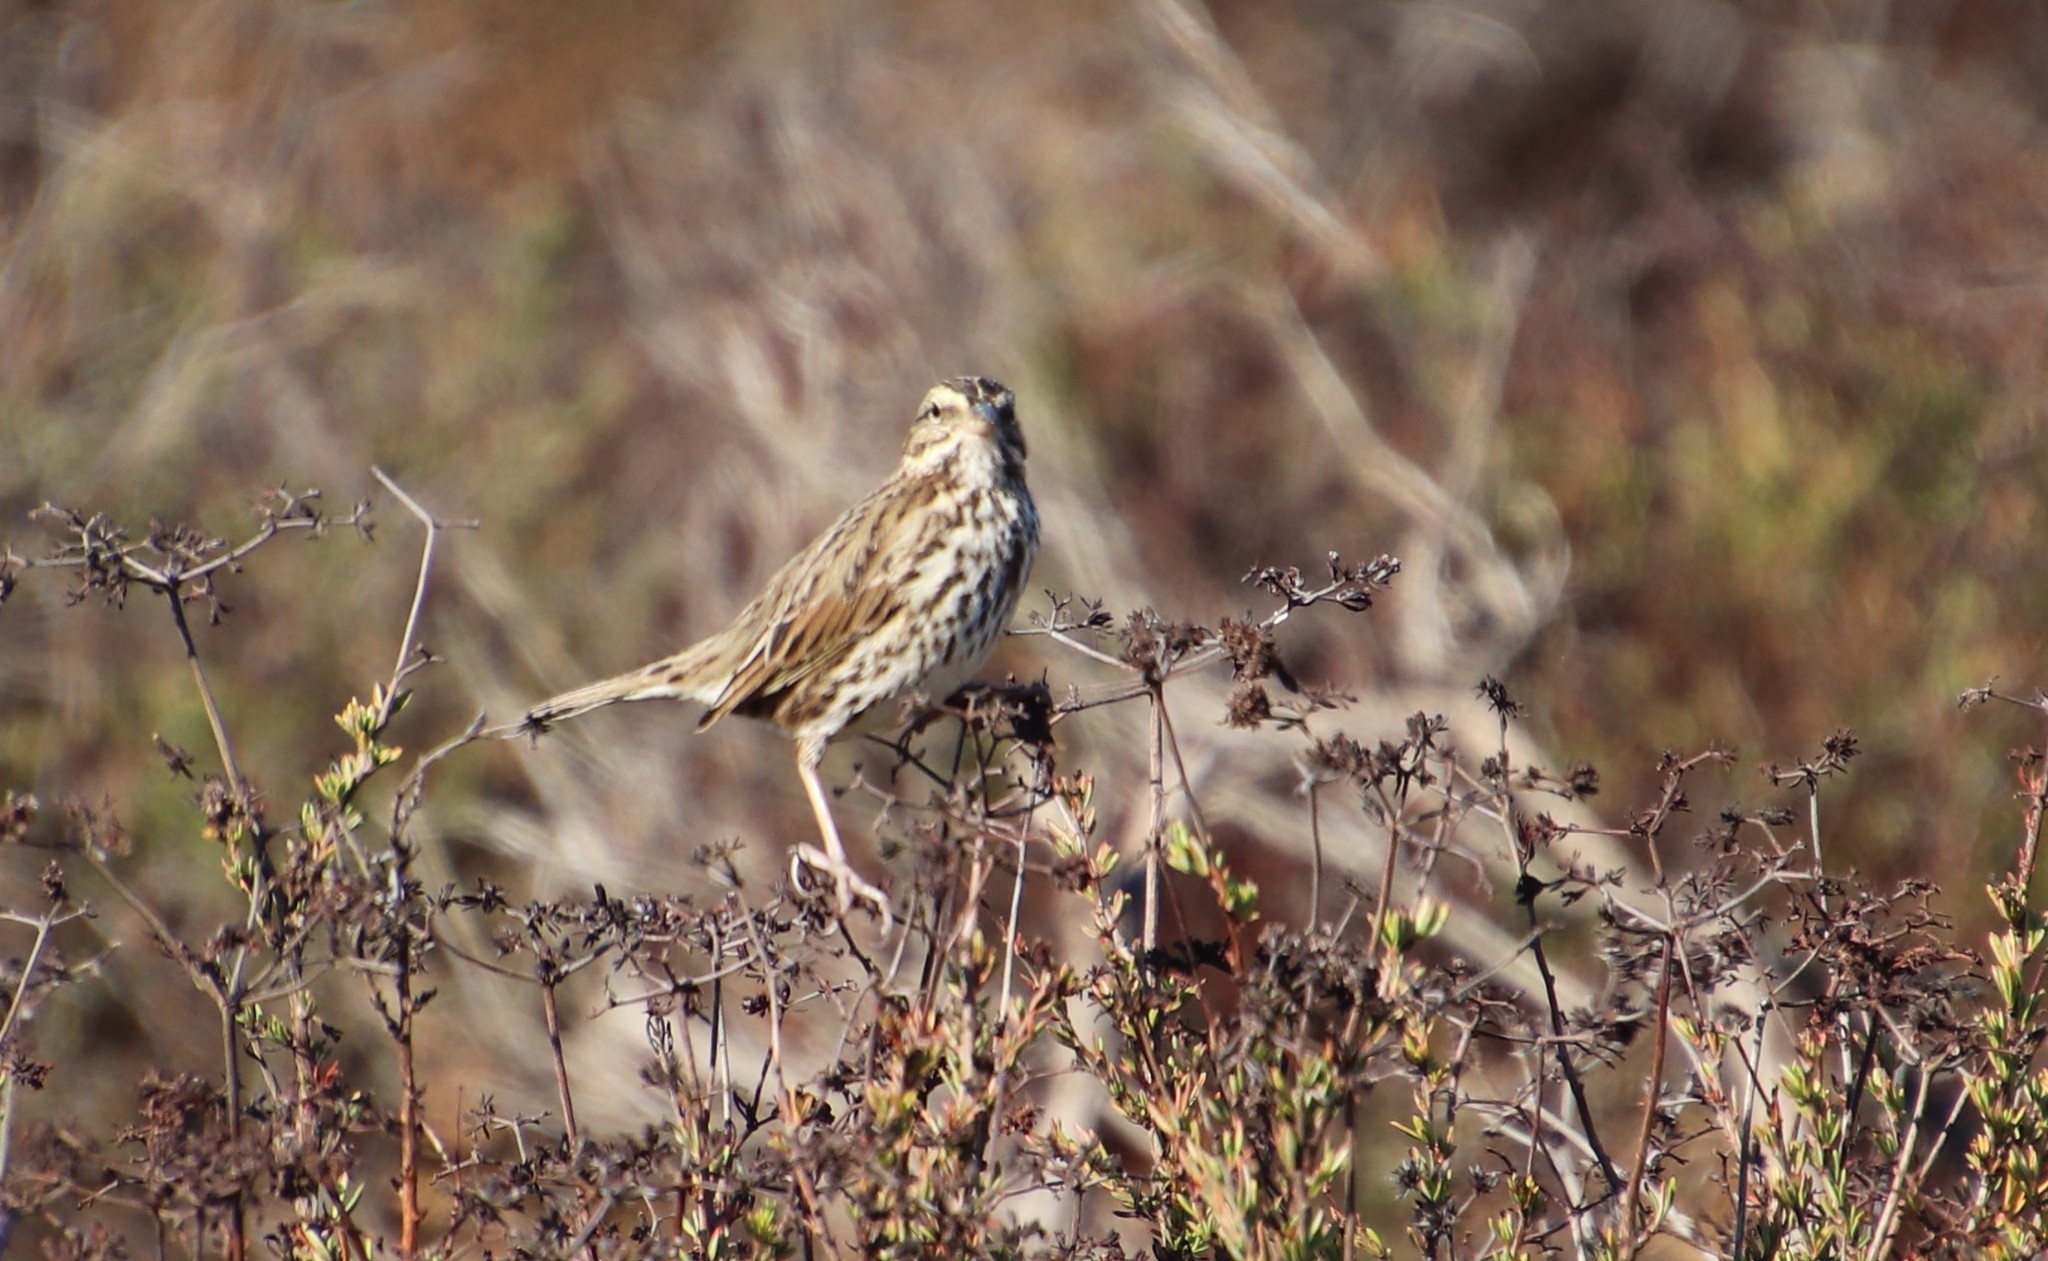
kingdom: Animalia
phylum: Chordata
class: Aves
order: Passeriformes
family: Passerellidae
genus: Passerculus
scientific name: Passerculus sandwichensis
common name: Savannah sparrow
